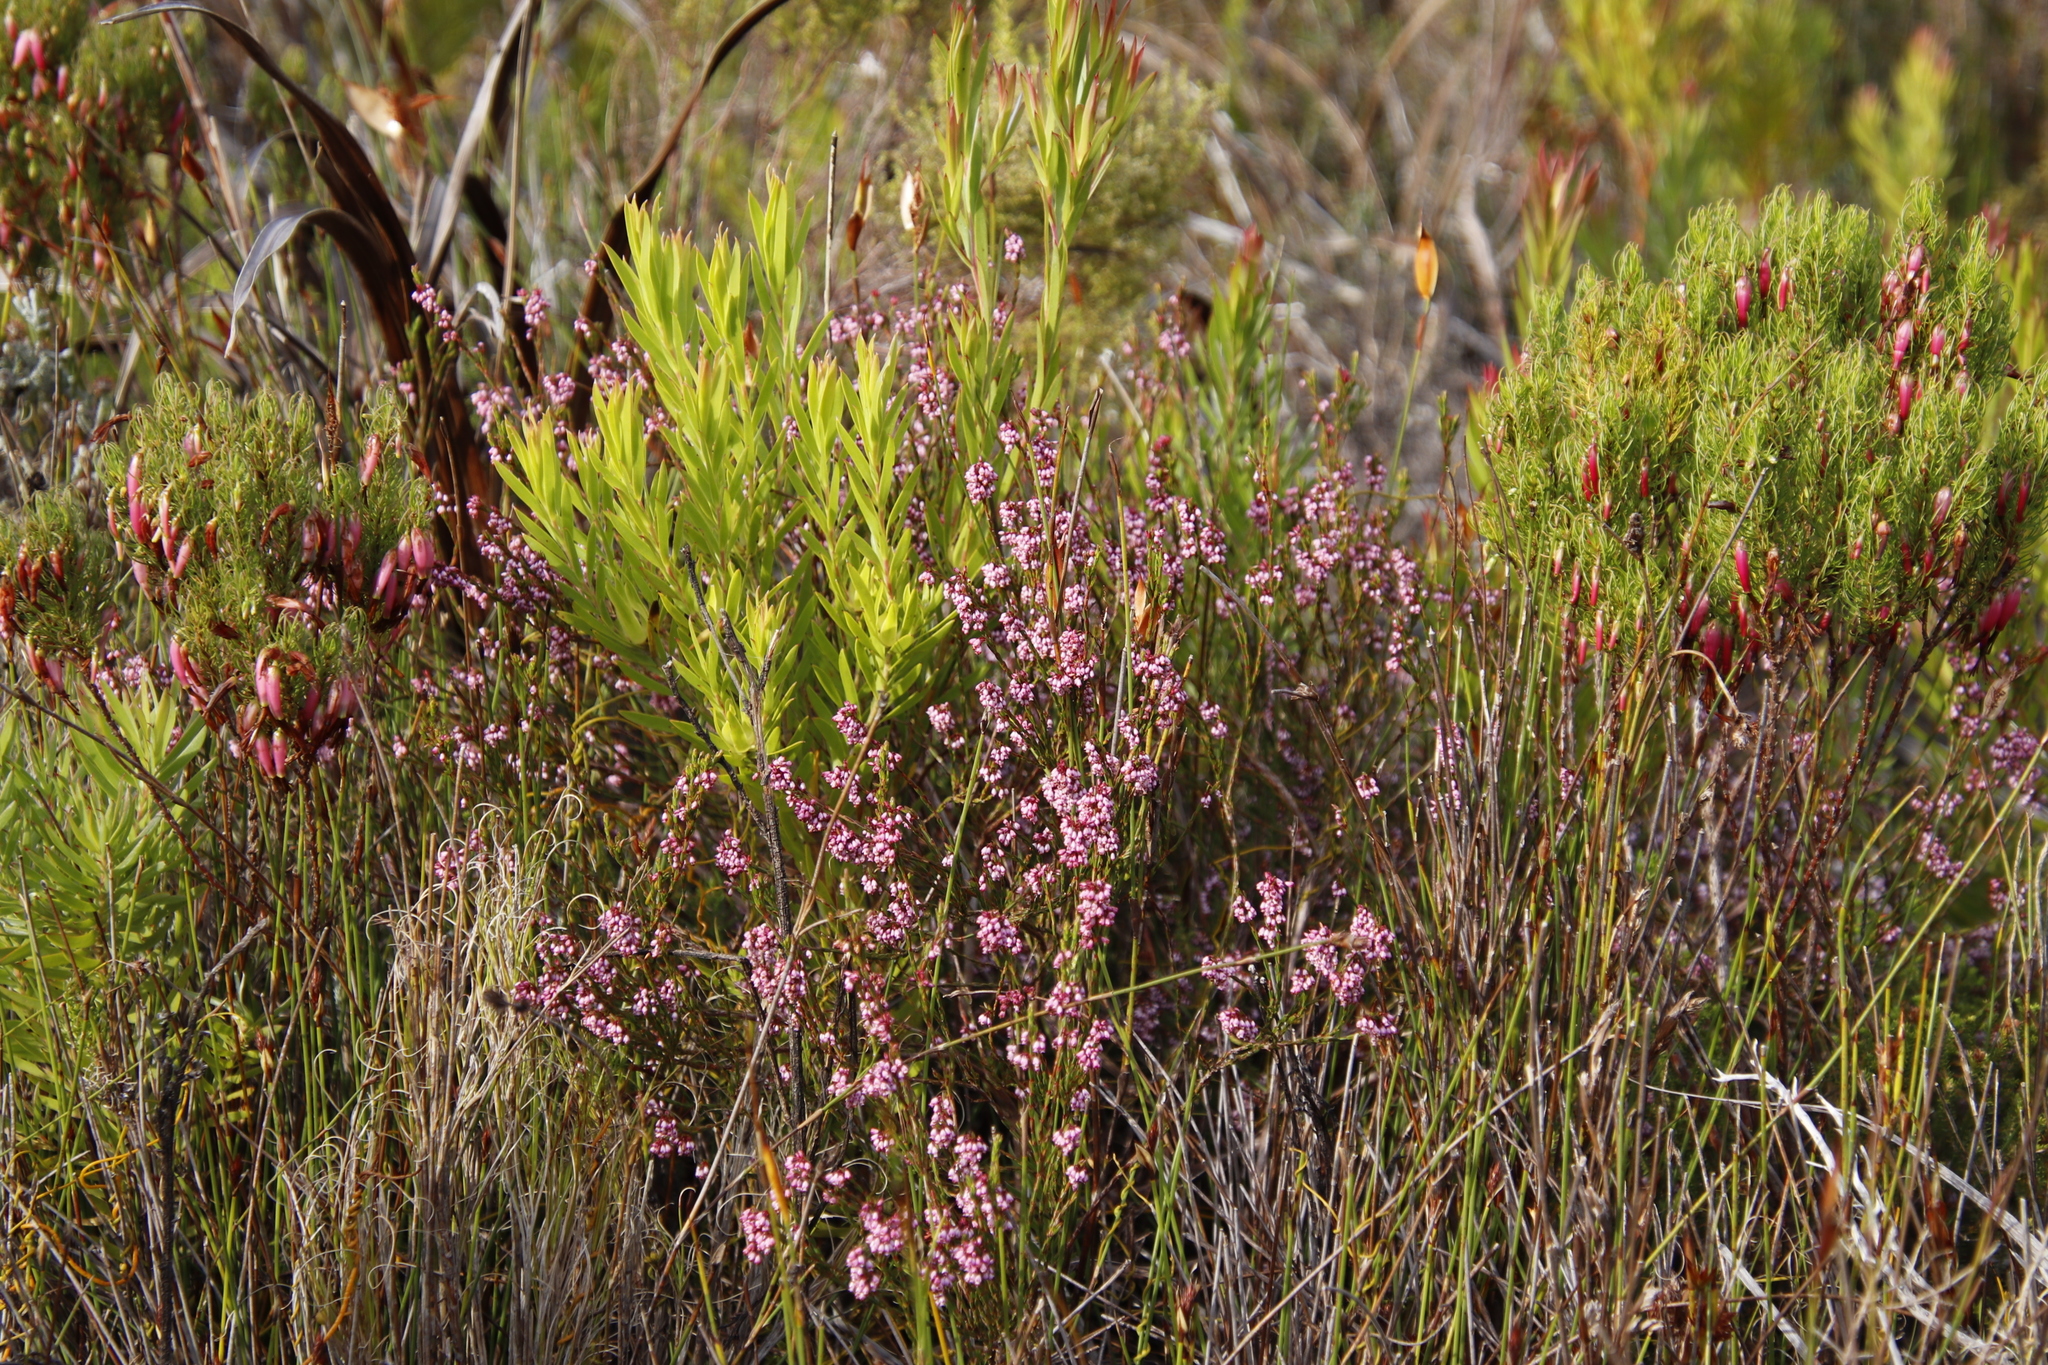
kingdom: Plantae
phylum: Tracheophyta
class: Magnoliopsida
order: Proteales
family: Proteaceae
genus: Leucadendron
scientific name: Leucadendron xanthoconus
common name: Sickle-leaf conebush
